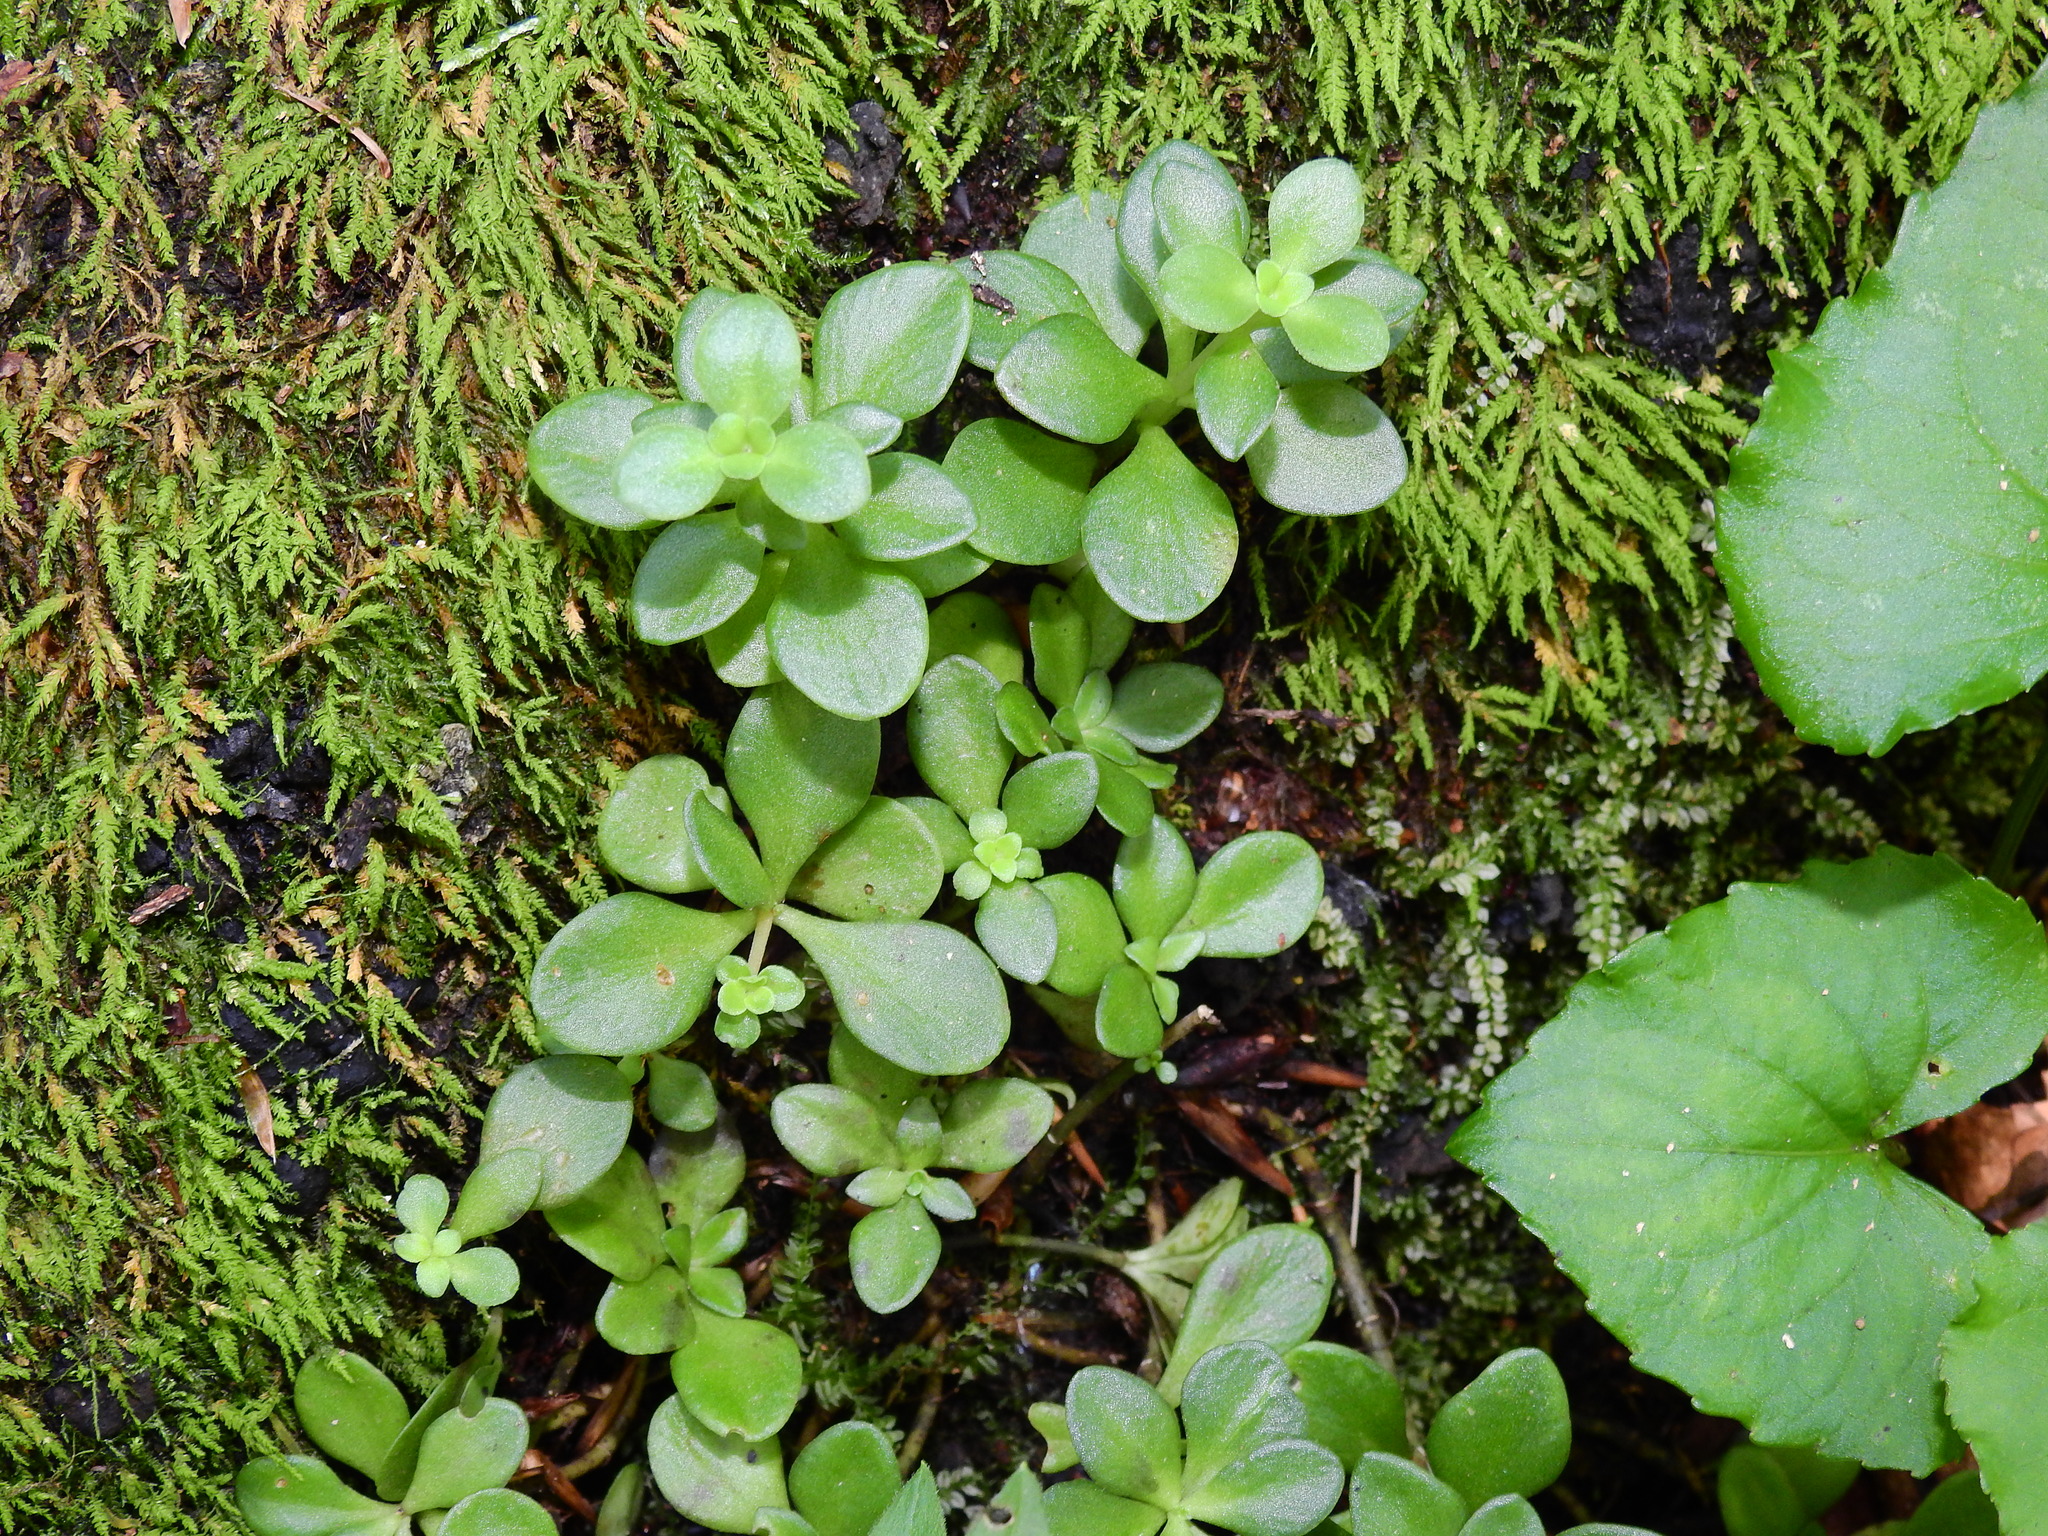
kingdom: Plantae
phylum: Tracheophyta
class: Magnoliopsida
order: Saxifragales
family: Crassulaceae
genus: Sedum
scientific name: Sedum ternatum
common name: Wild stonecrop
